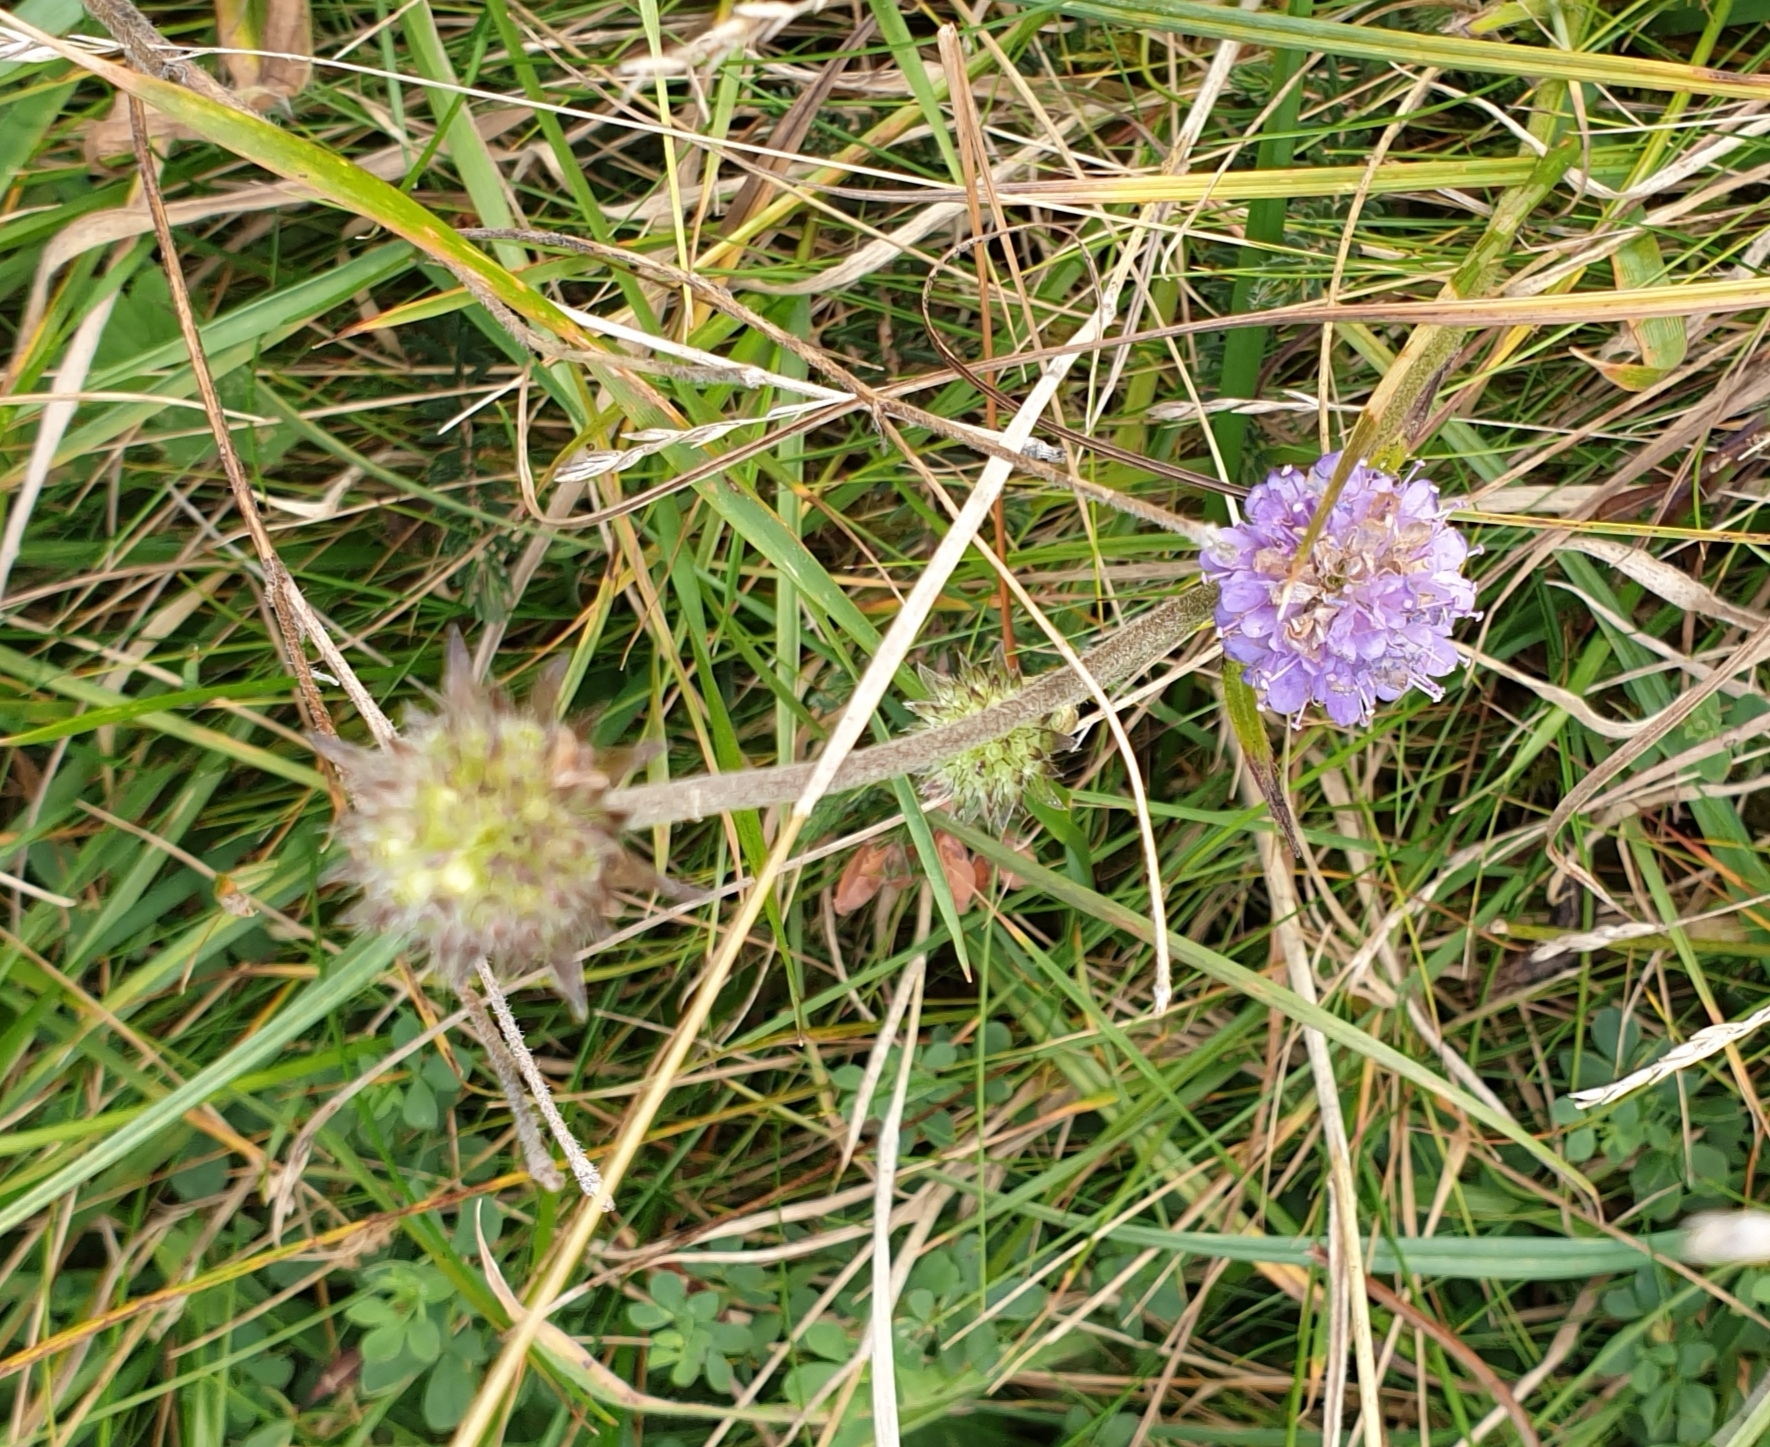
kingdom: Plantae
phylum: Tracheophyta
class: Magnoliopsida
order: Dipsacales
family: Caprifoliaceae
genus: Succisa
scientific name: Succisa pratensis
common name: Devil's-bit
